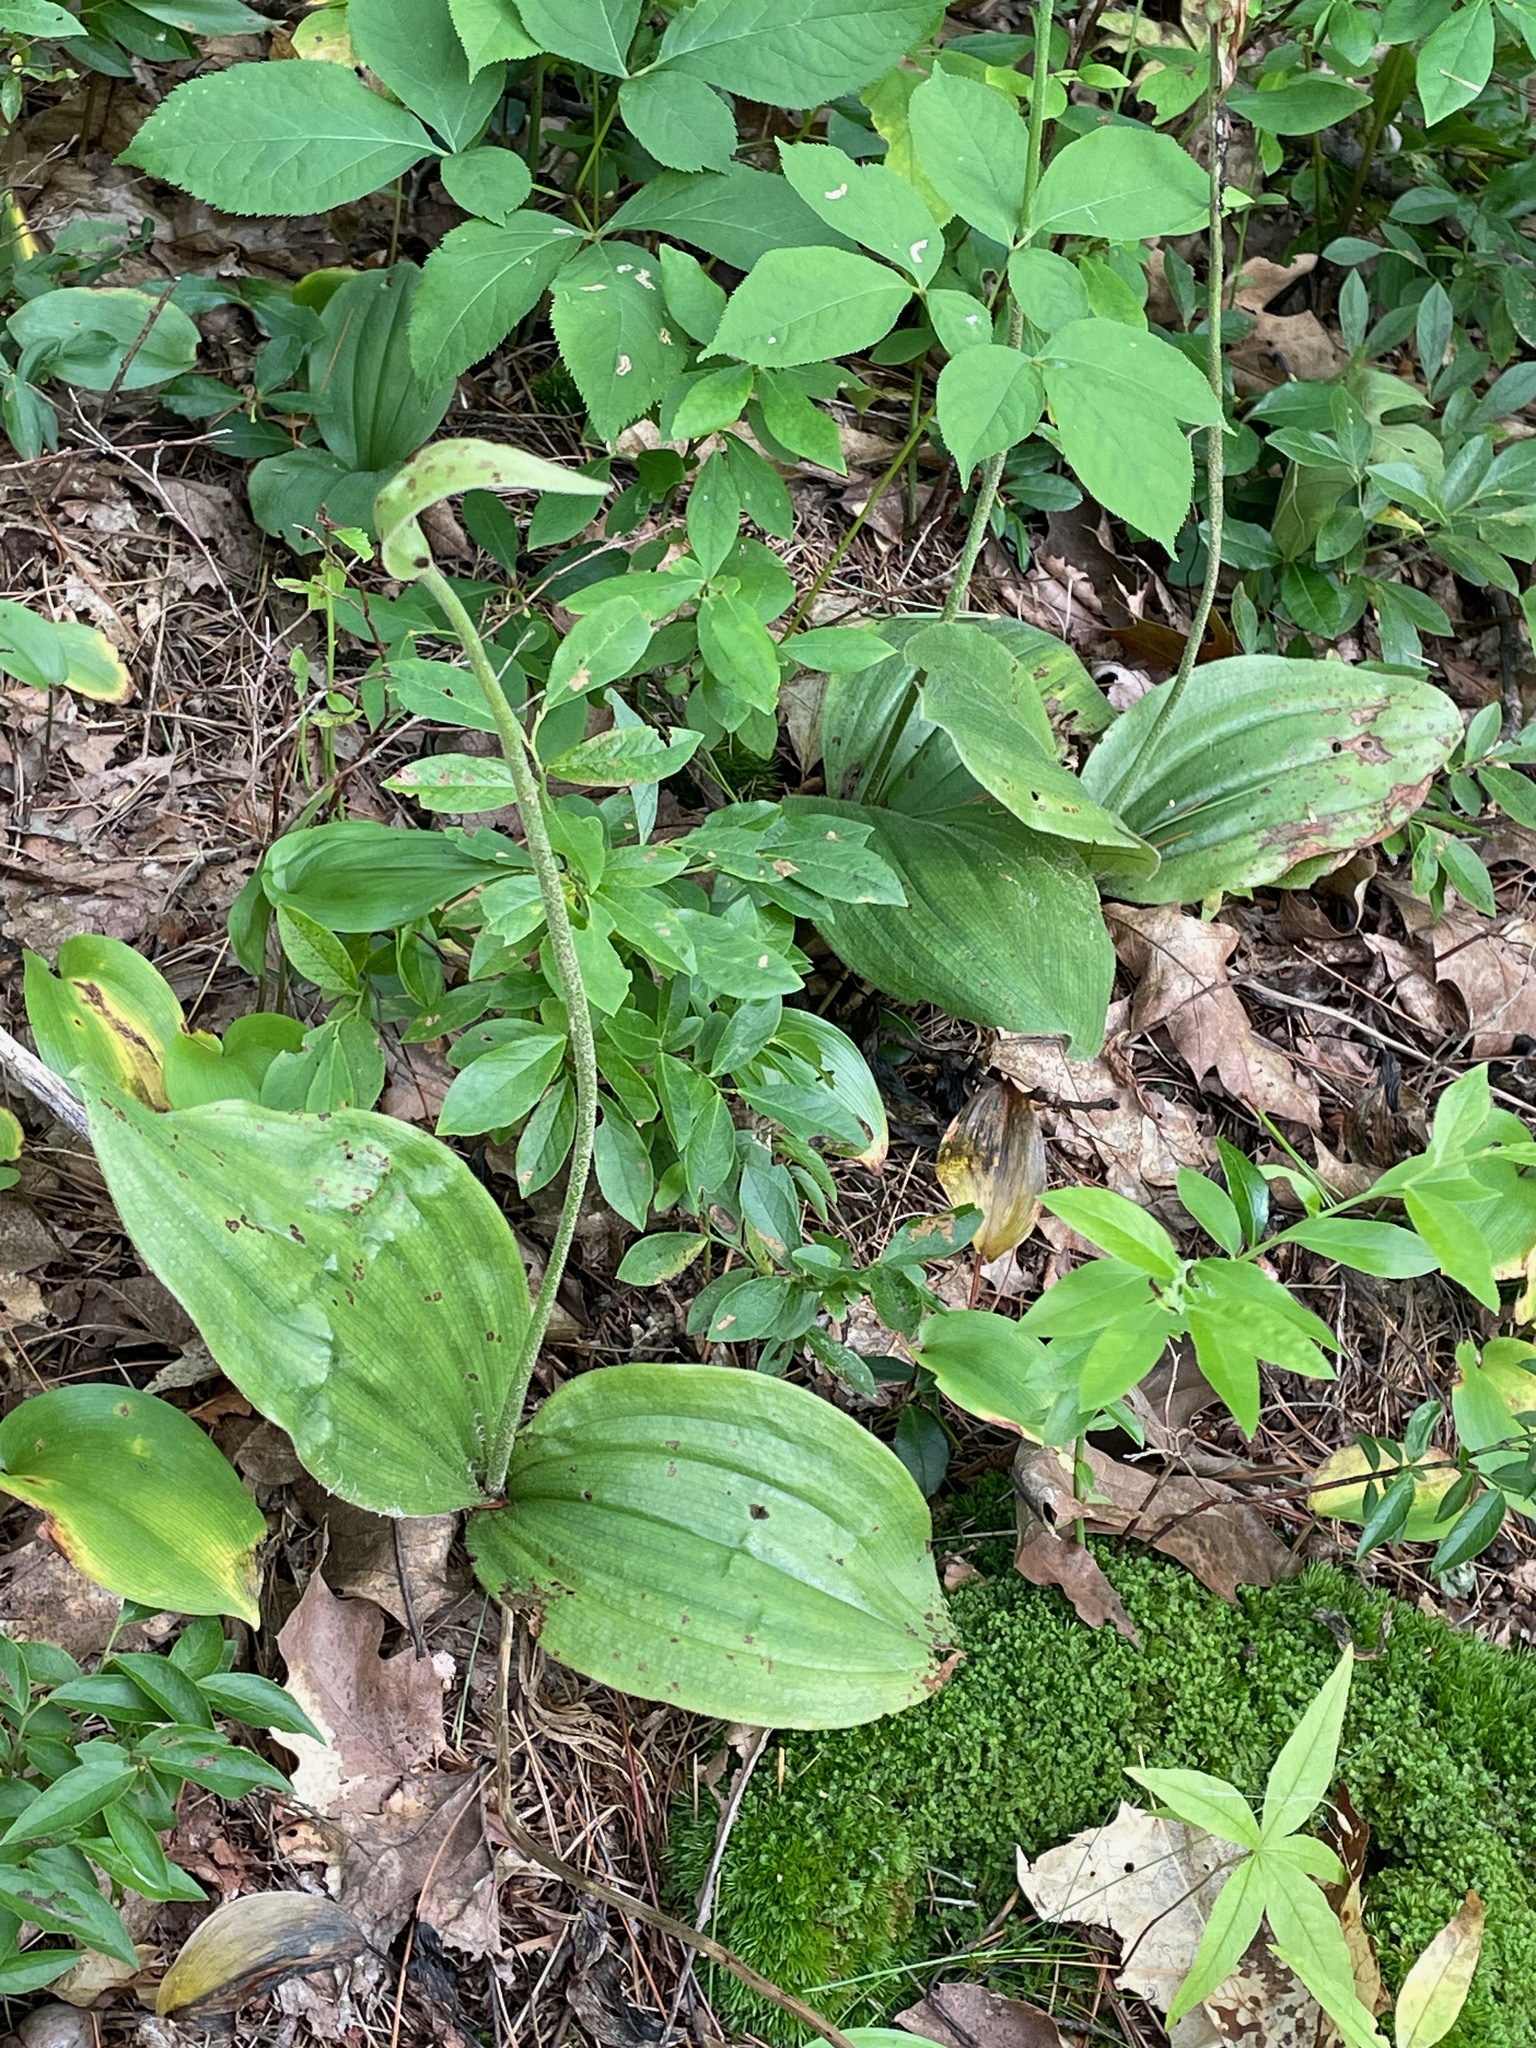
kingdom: Plantae
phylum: Tracheophyta
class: Liliopsida
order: Asparagales
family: Orchidaceae
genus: Cypripedium
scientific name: Cypripedium acaule
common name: Pink lady's-slipper
